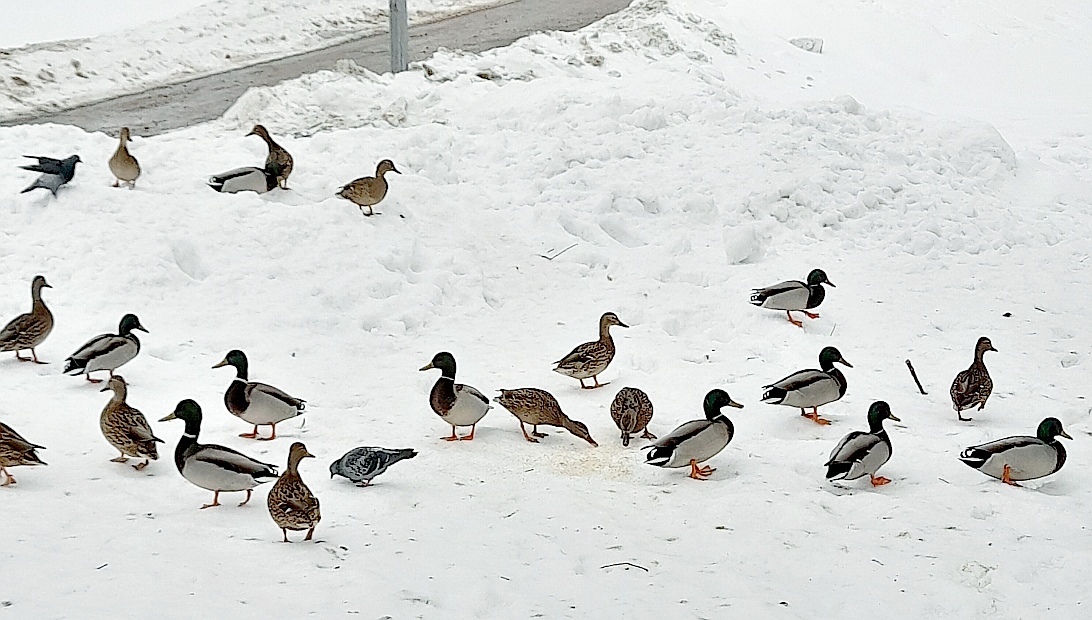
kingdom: Animalia
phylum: Chordata
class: Aves
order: Anseriformes
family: Anatidae
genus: Anas
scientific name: Anas platyrhynchos
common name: Mallard
